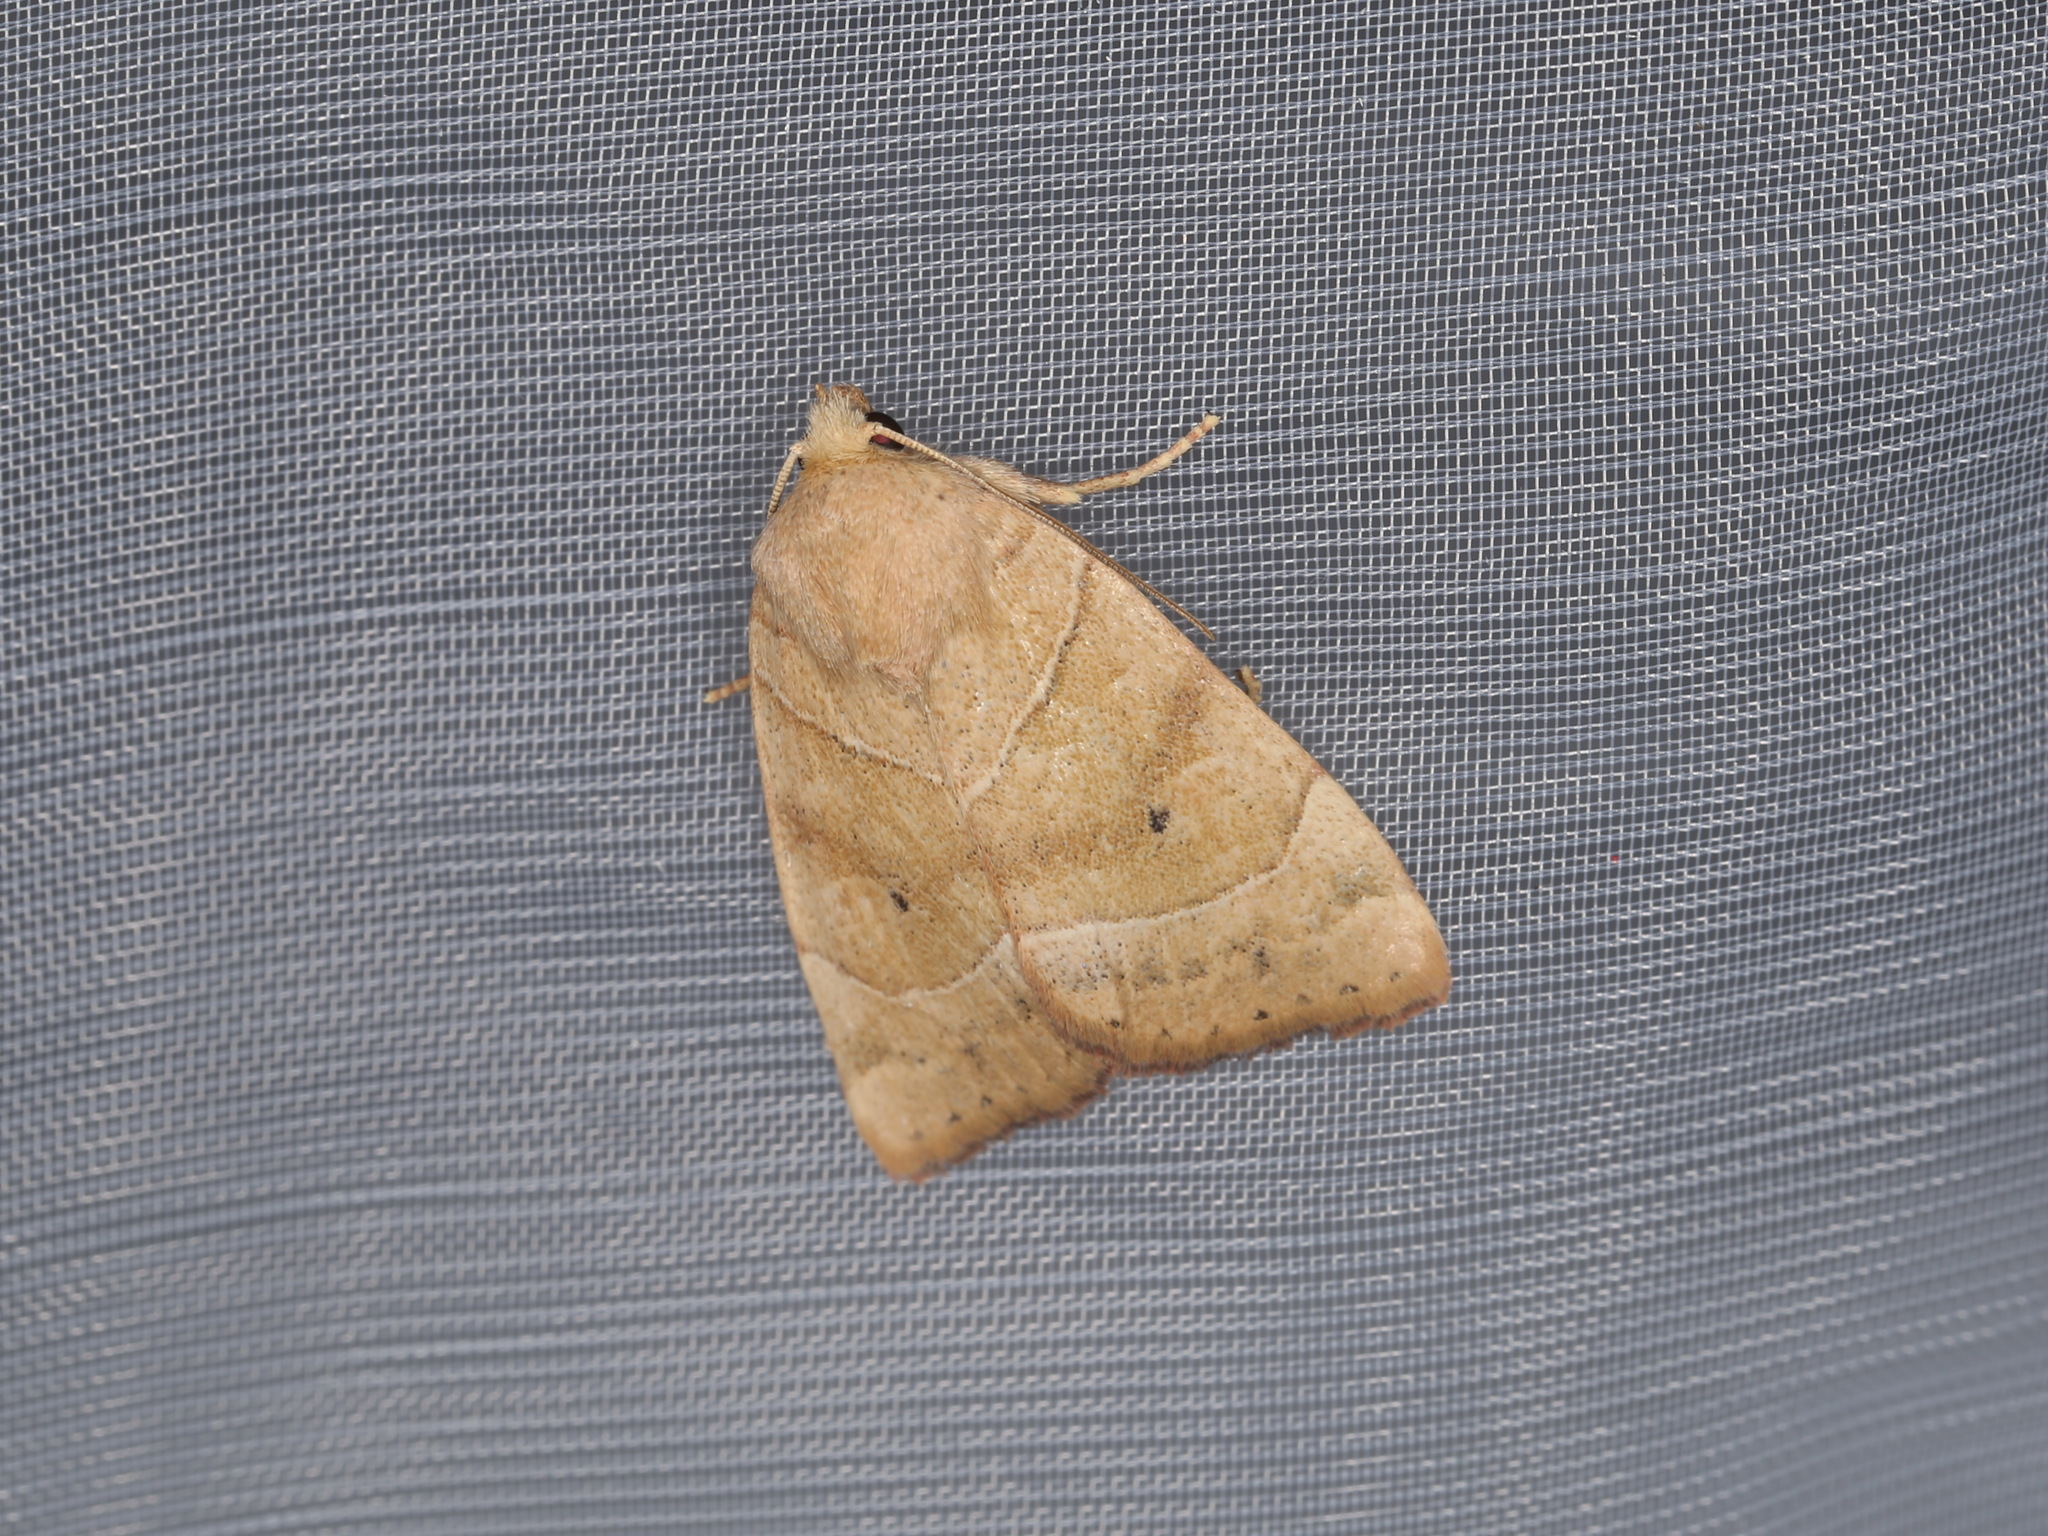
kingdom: Animalia
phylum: Arthropoda
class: Insecta
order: Lepidoptera
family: Noctuidae
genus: Cosmia
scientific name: Cosmia trapezina
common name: Dun-bar
